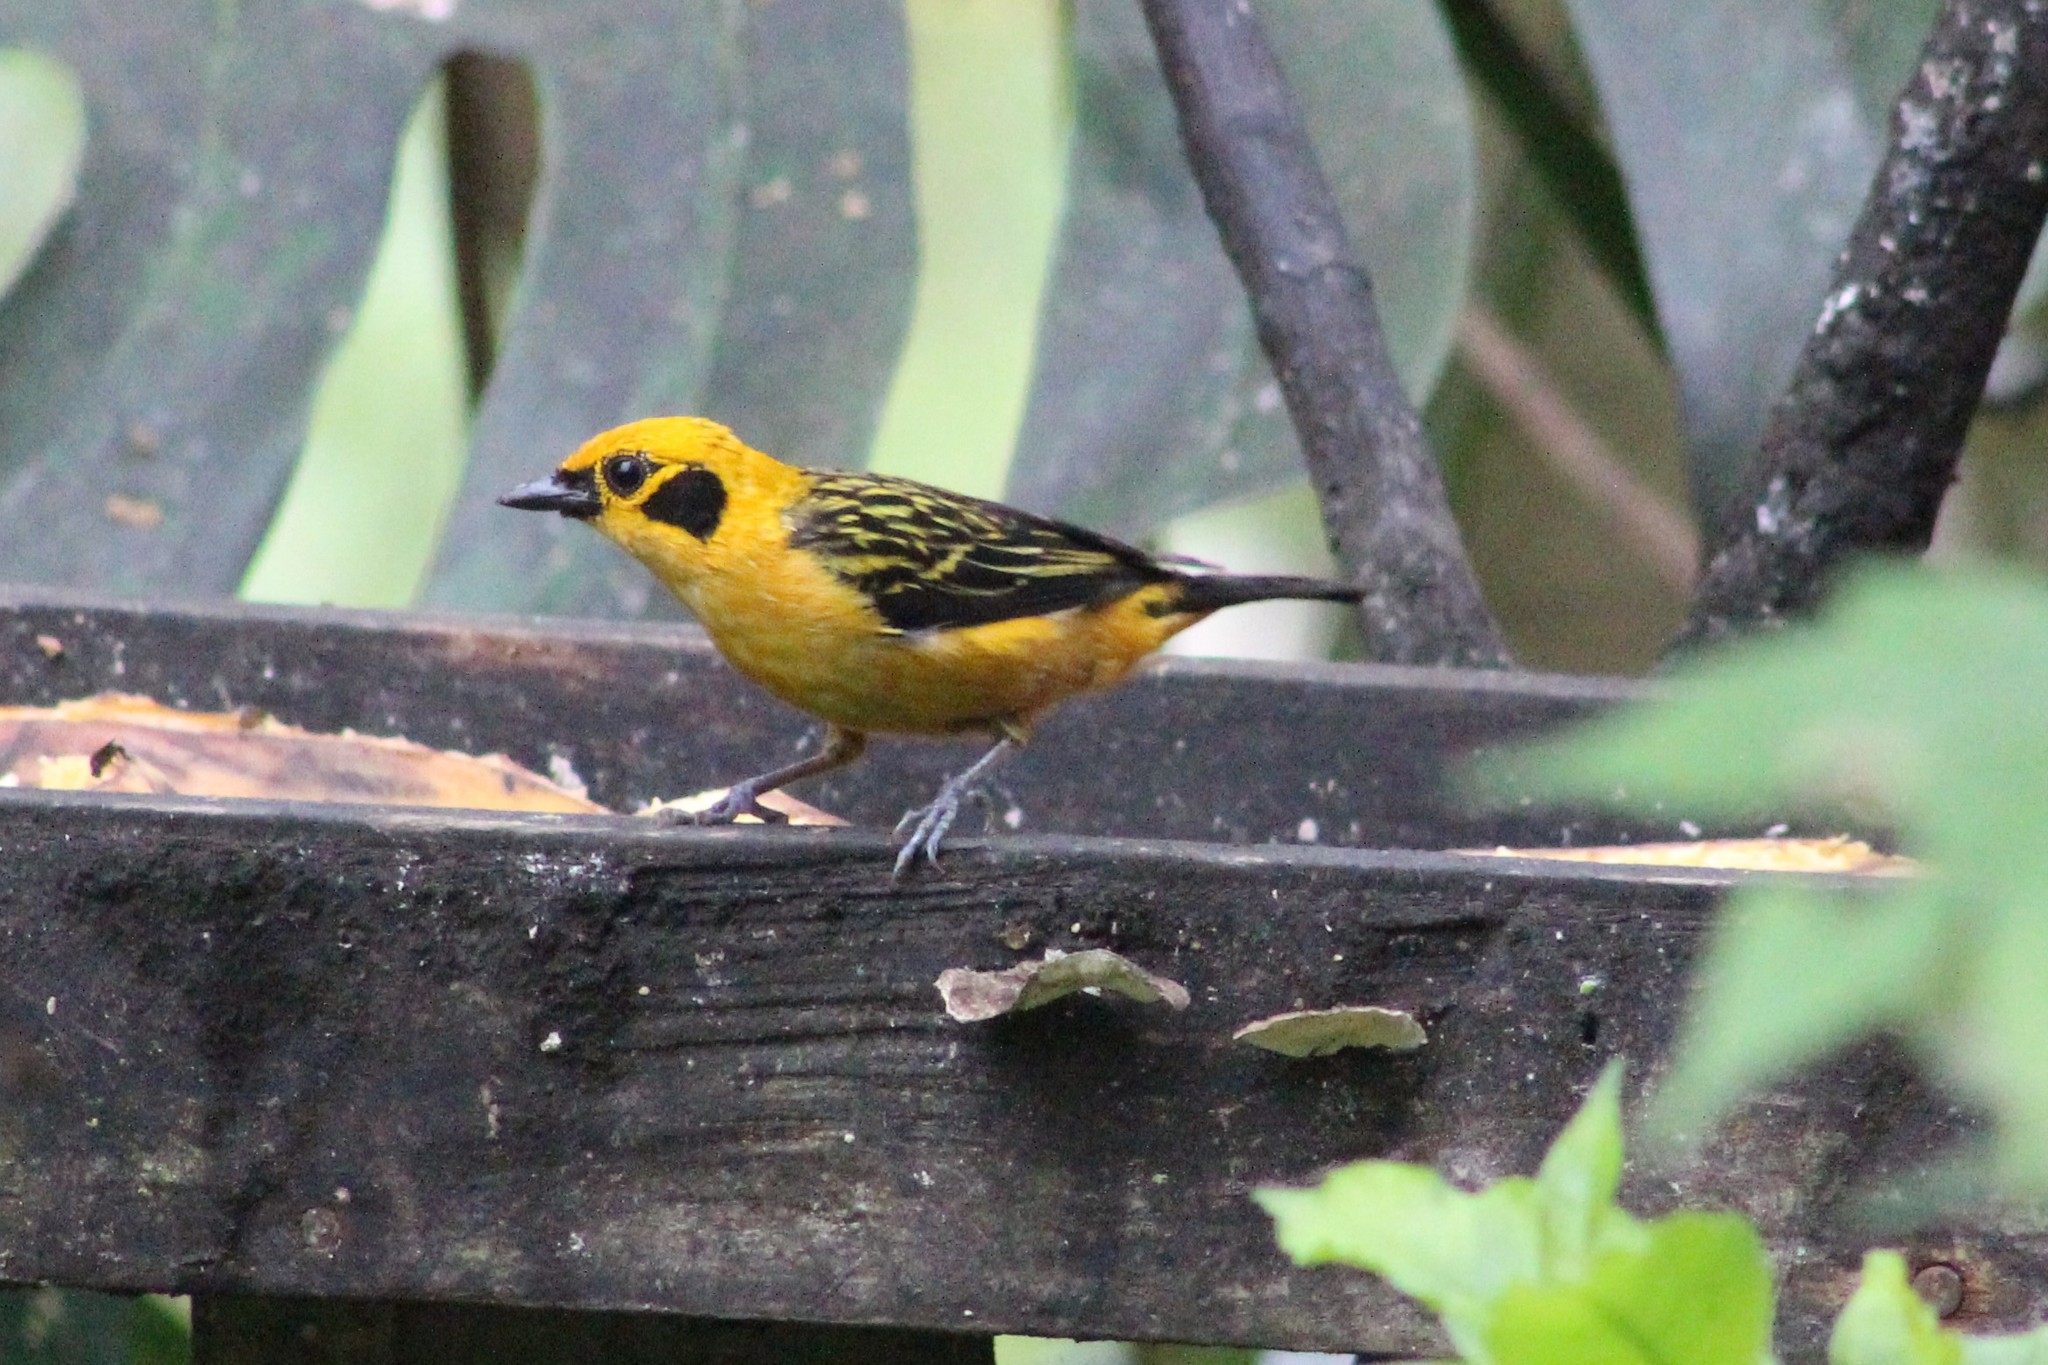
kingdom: Animalia
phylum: Chordata
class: Aves
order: Passeriformes
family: Thraupidae
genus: Tangara
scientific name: Tangara arthus
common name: Golden tanager
